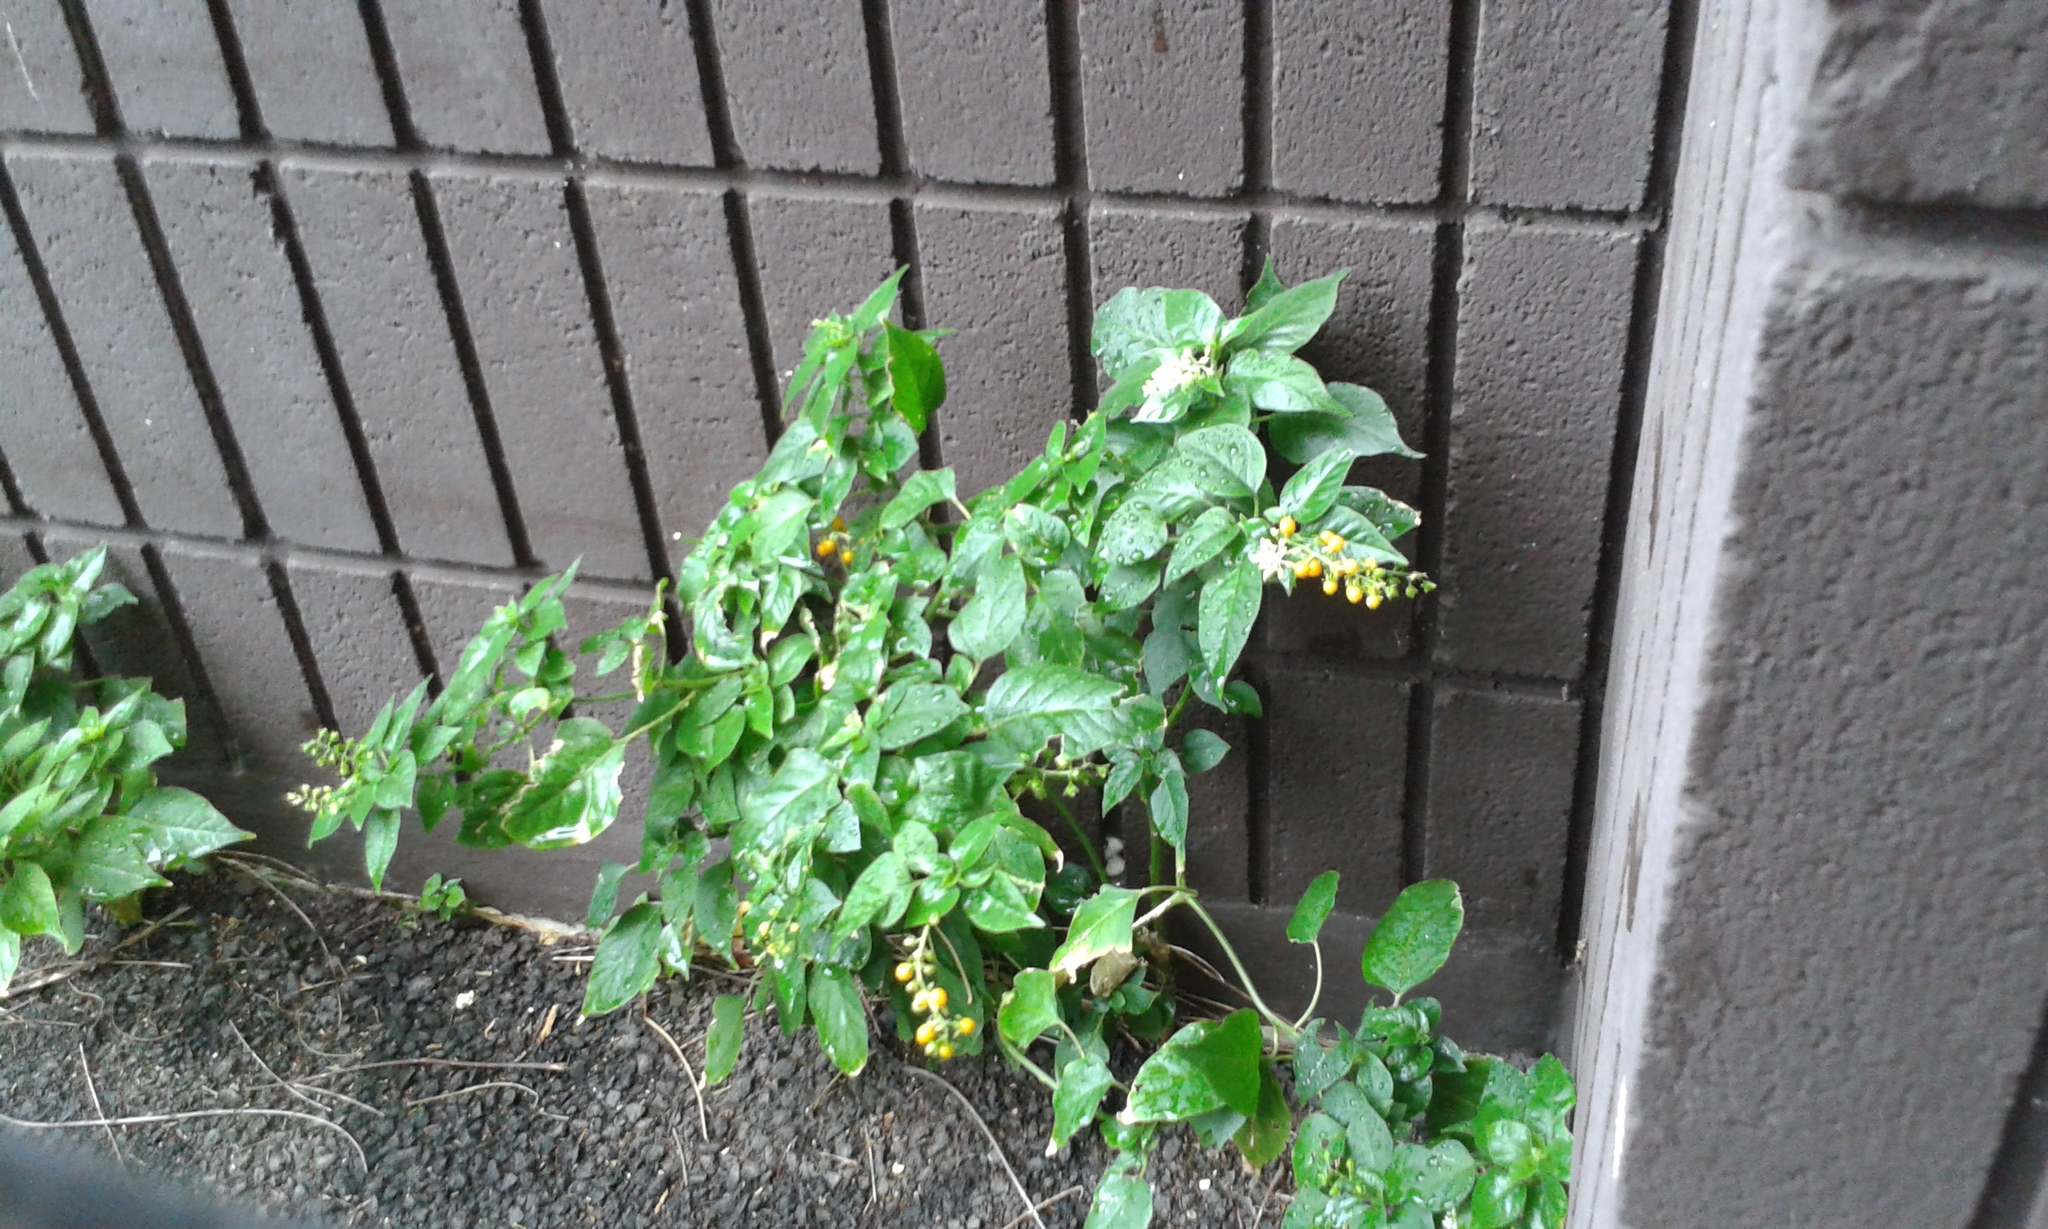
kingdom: Plantae
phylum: Tracheophyta
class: Magnoliopsida
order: Caryophyllales
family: Phytolaccaceae
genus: Rivina
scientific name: Rivina humilis
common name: Rougeplant
